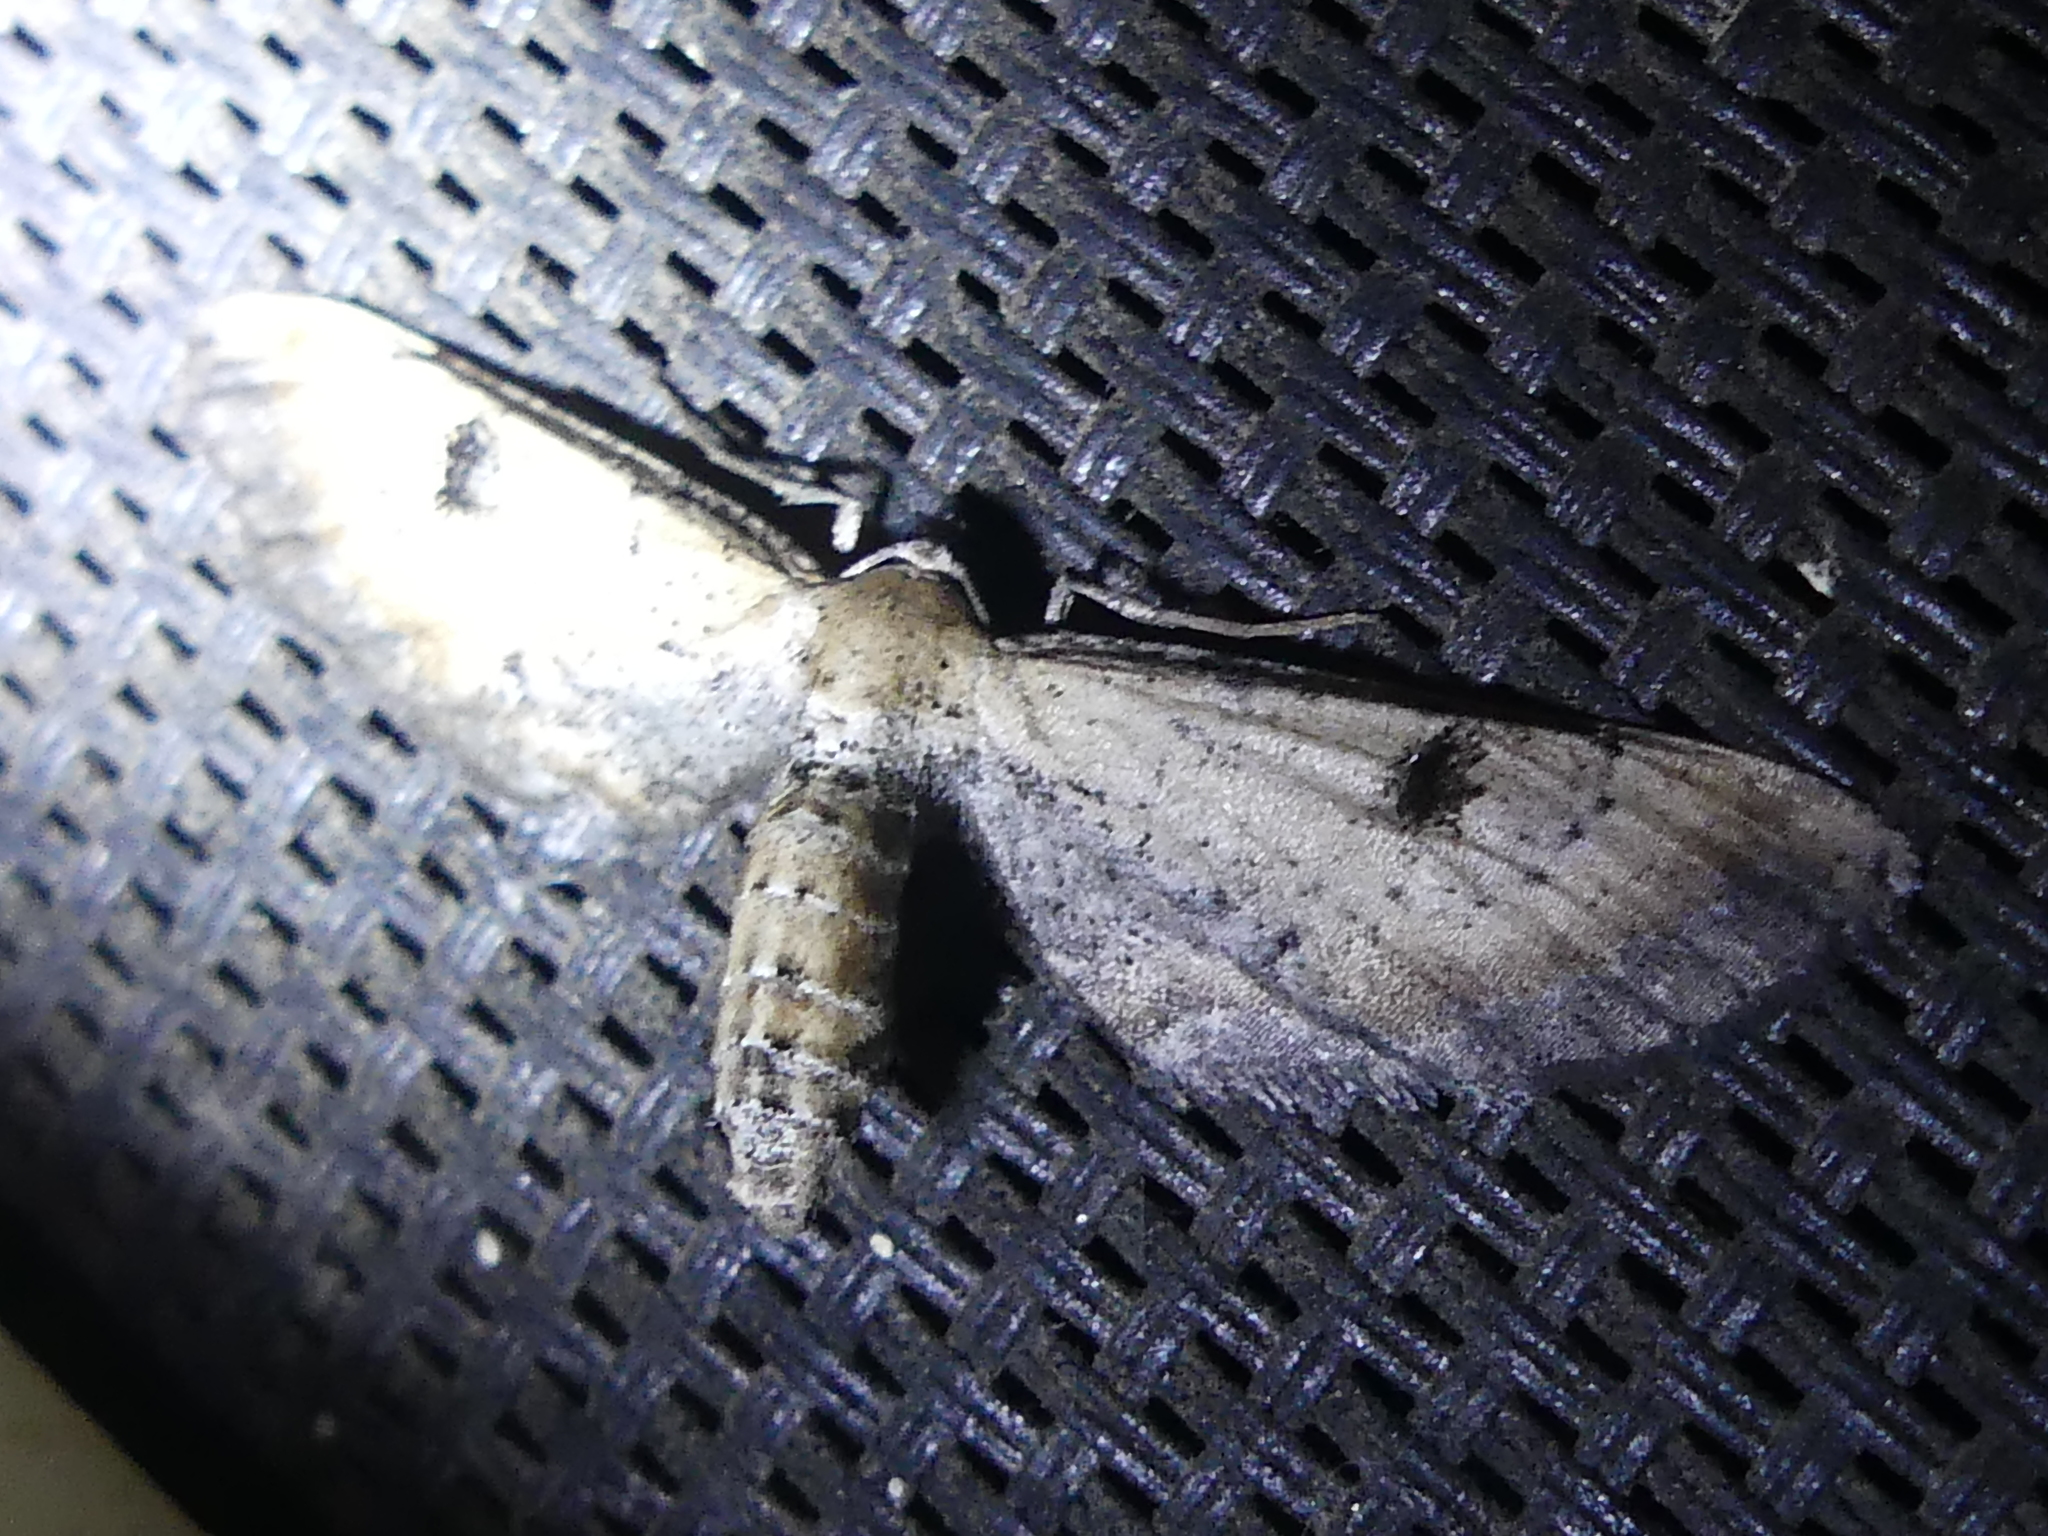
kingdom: Animalia
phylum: Arthropoda
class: Insecta
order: Lepidoptera
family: Geometridae
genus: Tornos
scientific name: Tornos scolopacinaria
